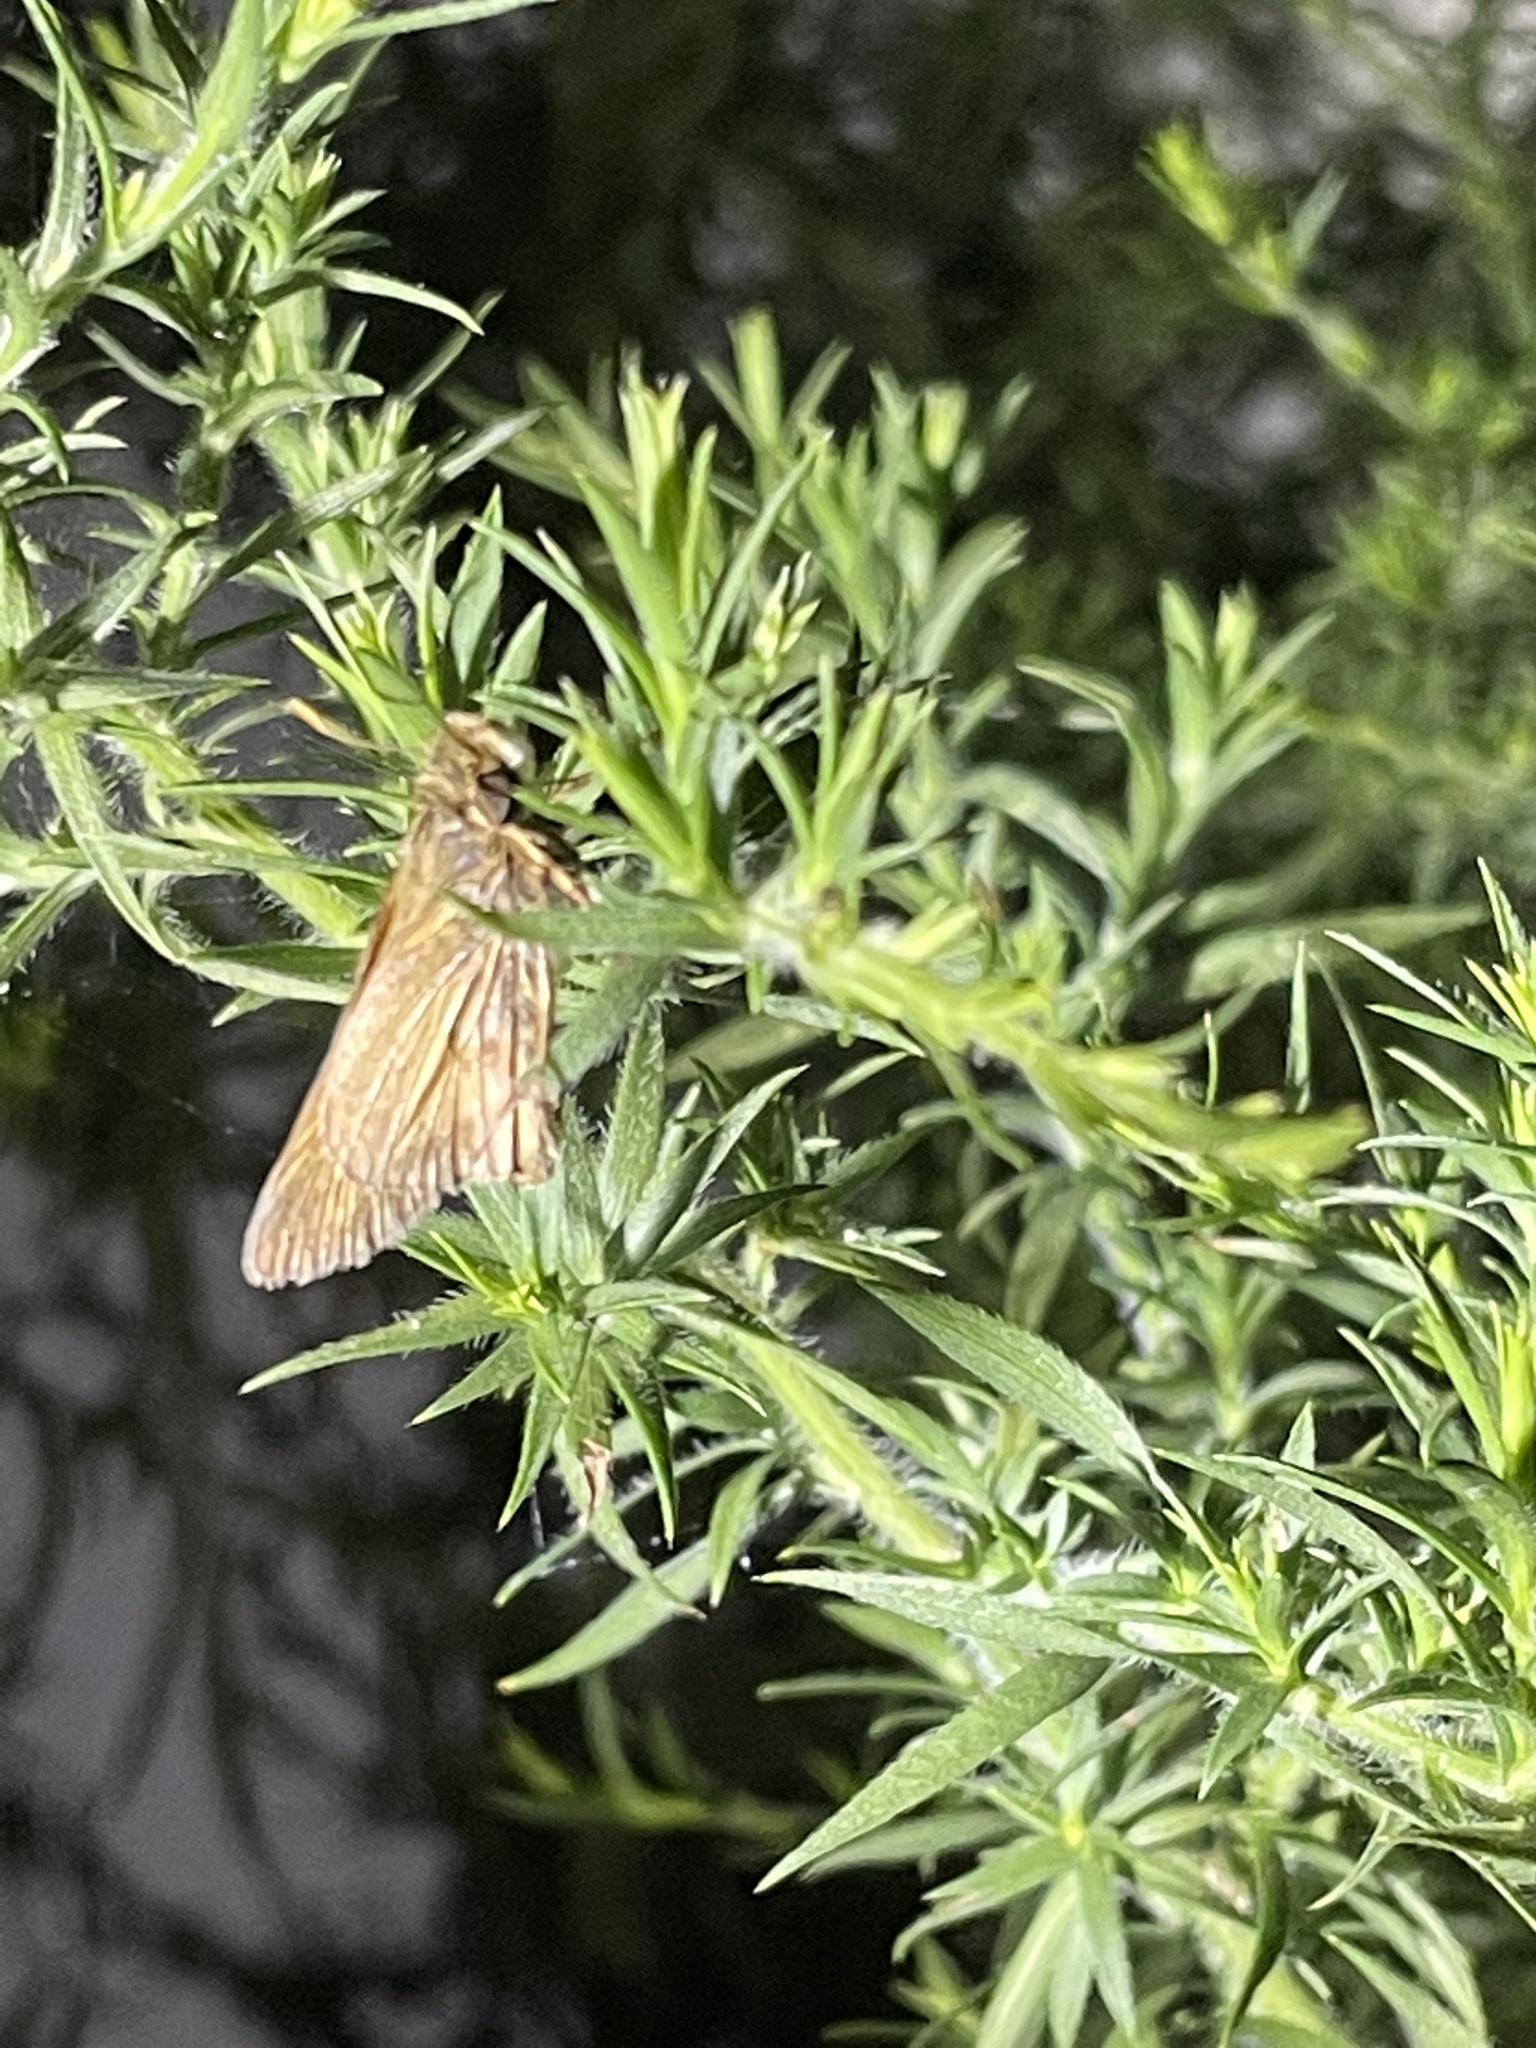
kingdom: Animalia
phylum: Arthropoda
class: Insecta
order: Lepidoptera
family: Hesperiidae
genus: Atalopedes
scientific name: Atalopedes
